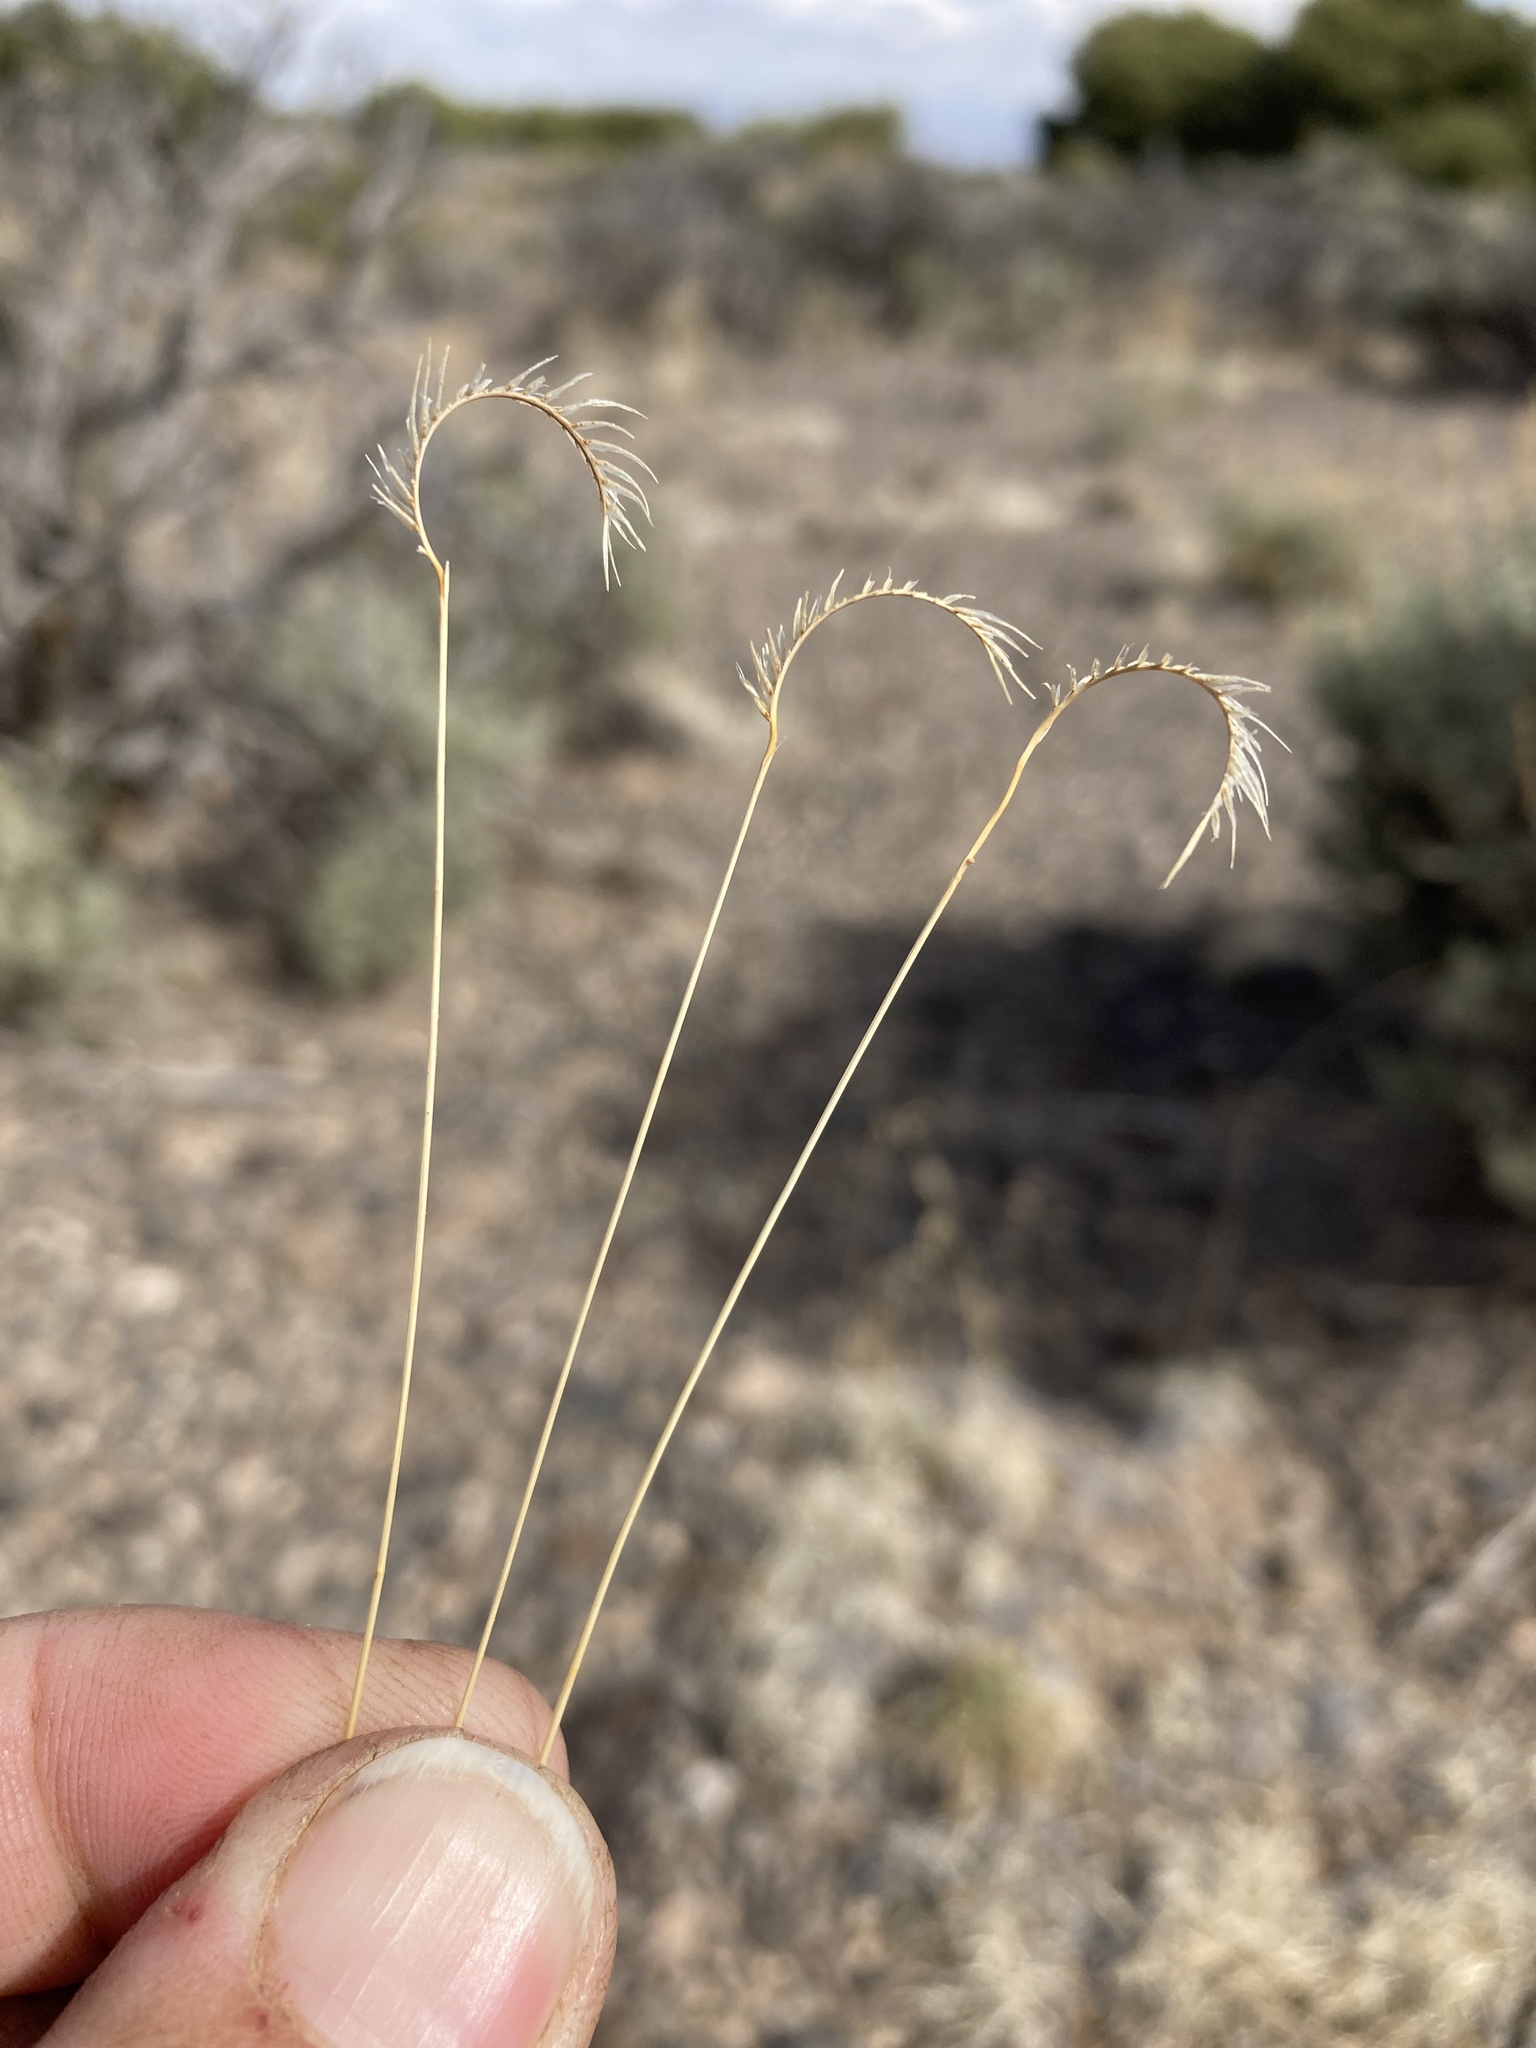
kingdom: Plantae
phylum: Tracheophyta
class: Liliopsida
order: Poales
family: Poaceae
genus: Bouteloua
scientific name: Bouteloua gracilis
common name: Blue grama
